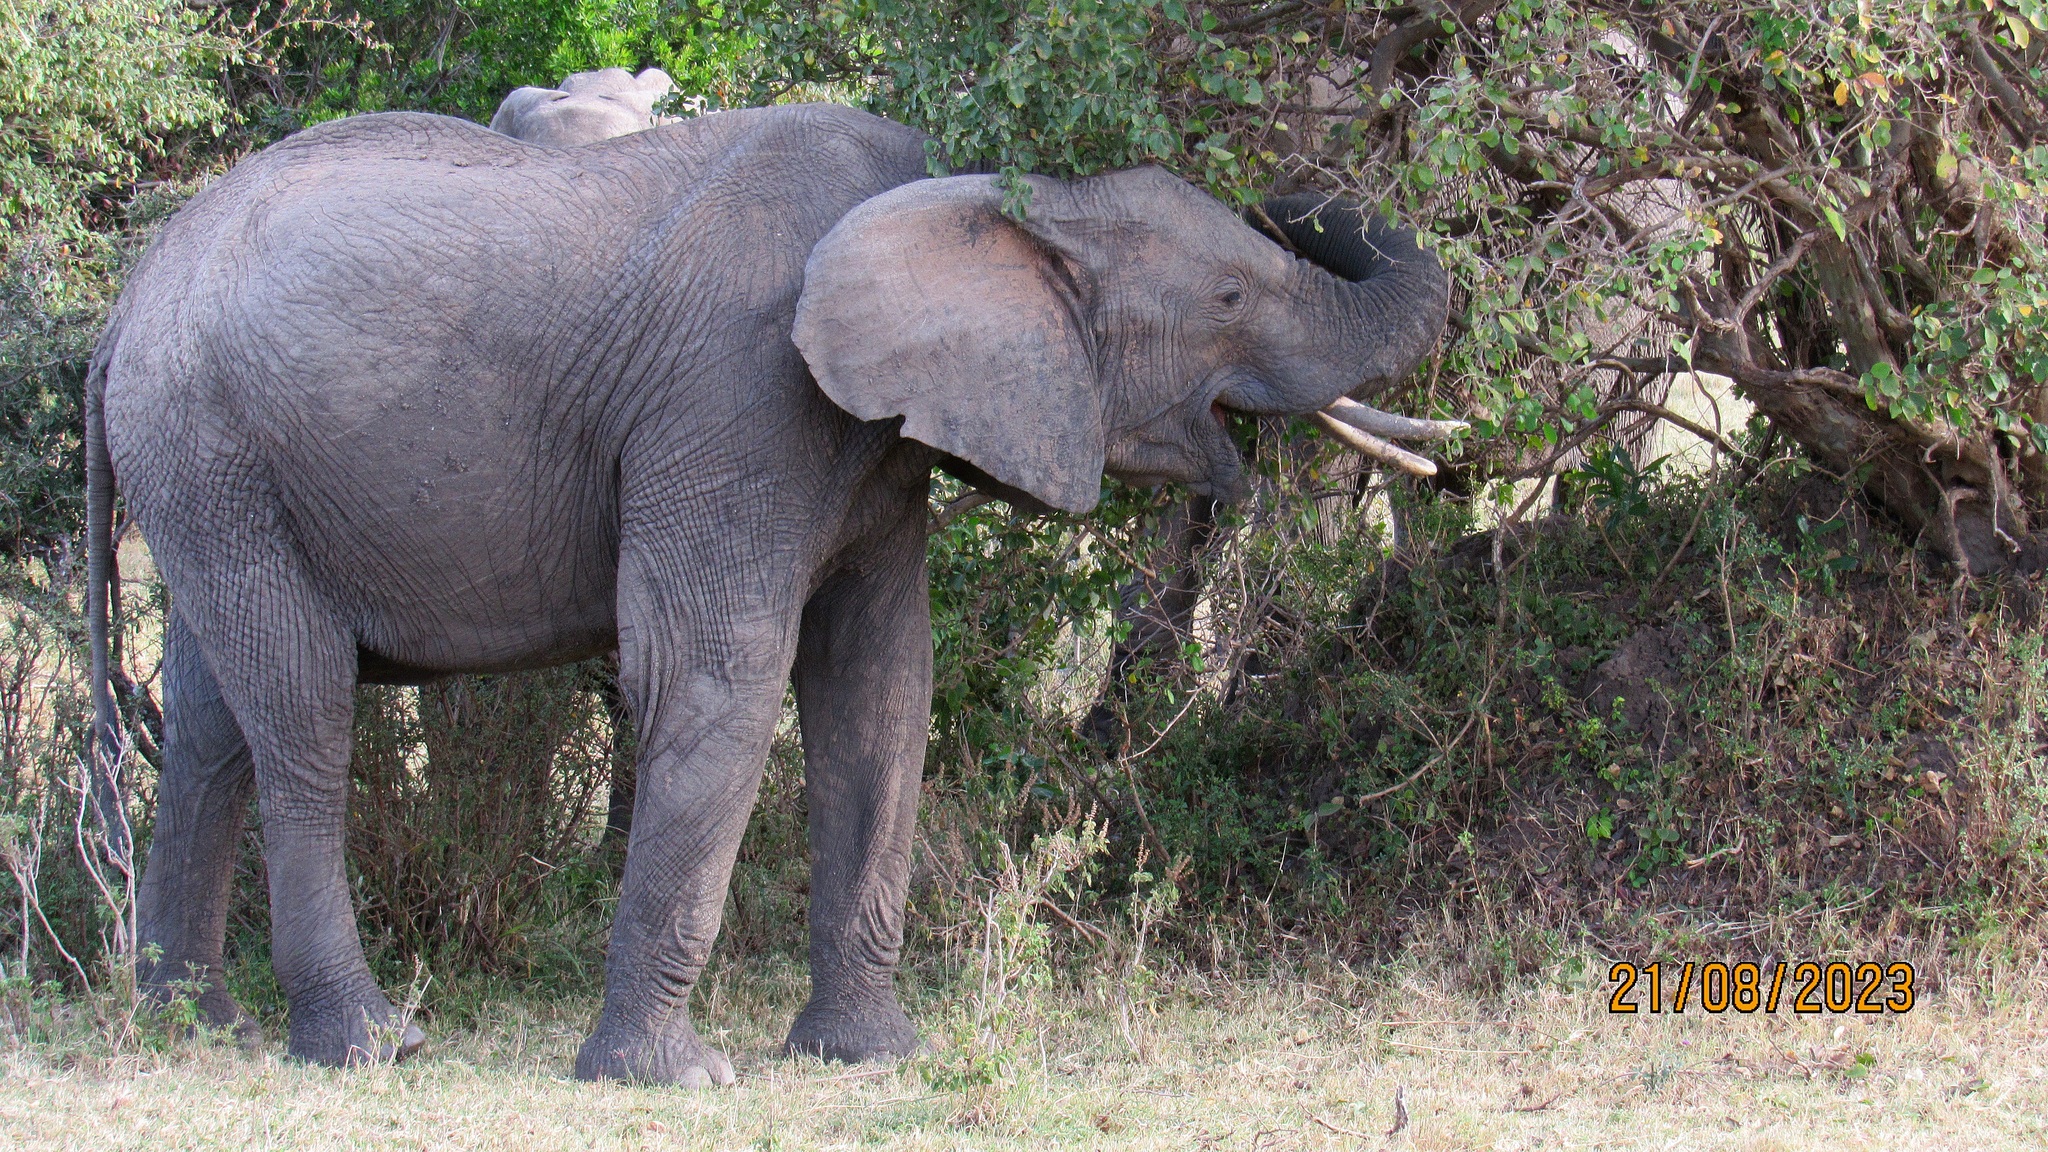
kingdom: Animalia
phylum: Chordata
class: Mammalia
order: Proboscidea
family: Elephantidae
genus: Loxodonta
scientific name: Loxodonta africana
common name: African elephant
